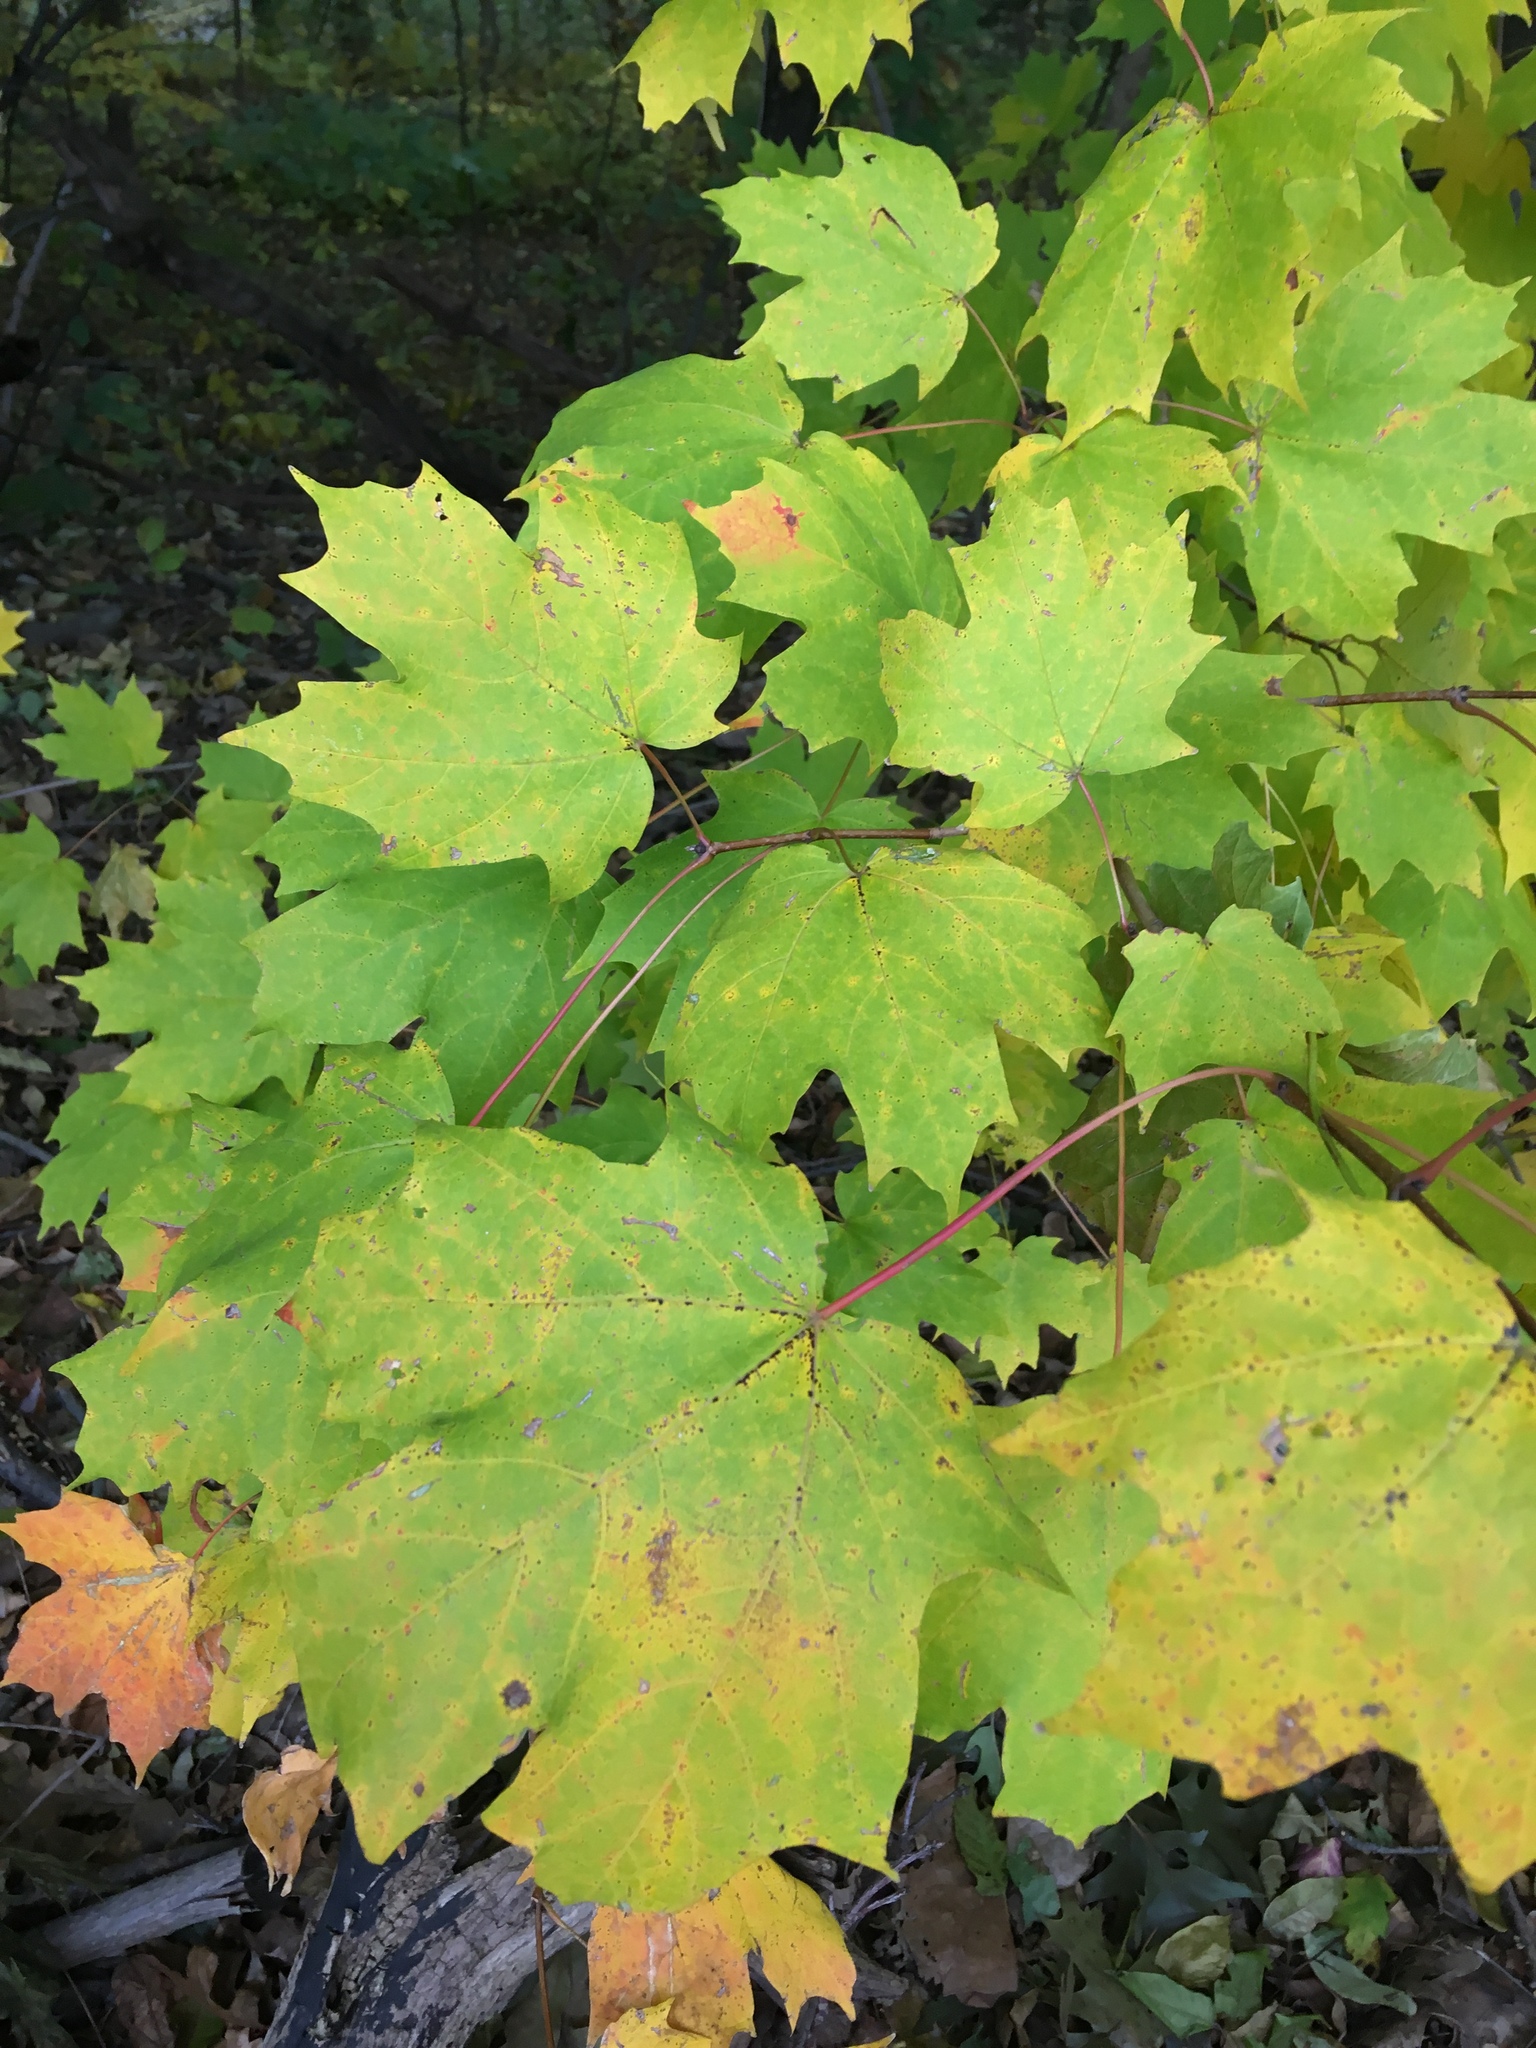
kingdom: Plantae
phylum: Tracheophyta
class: Magnoliopsida
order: Sapindales
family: Sapindaceae
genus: Acer
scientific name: Acer saccharum
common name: Sugar maple
